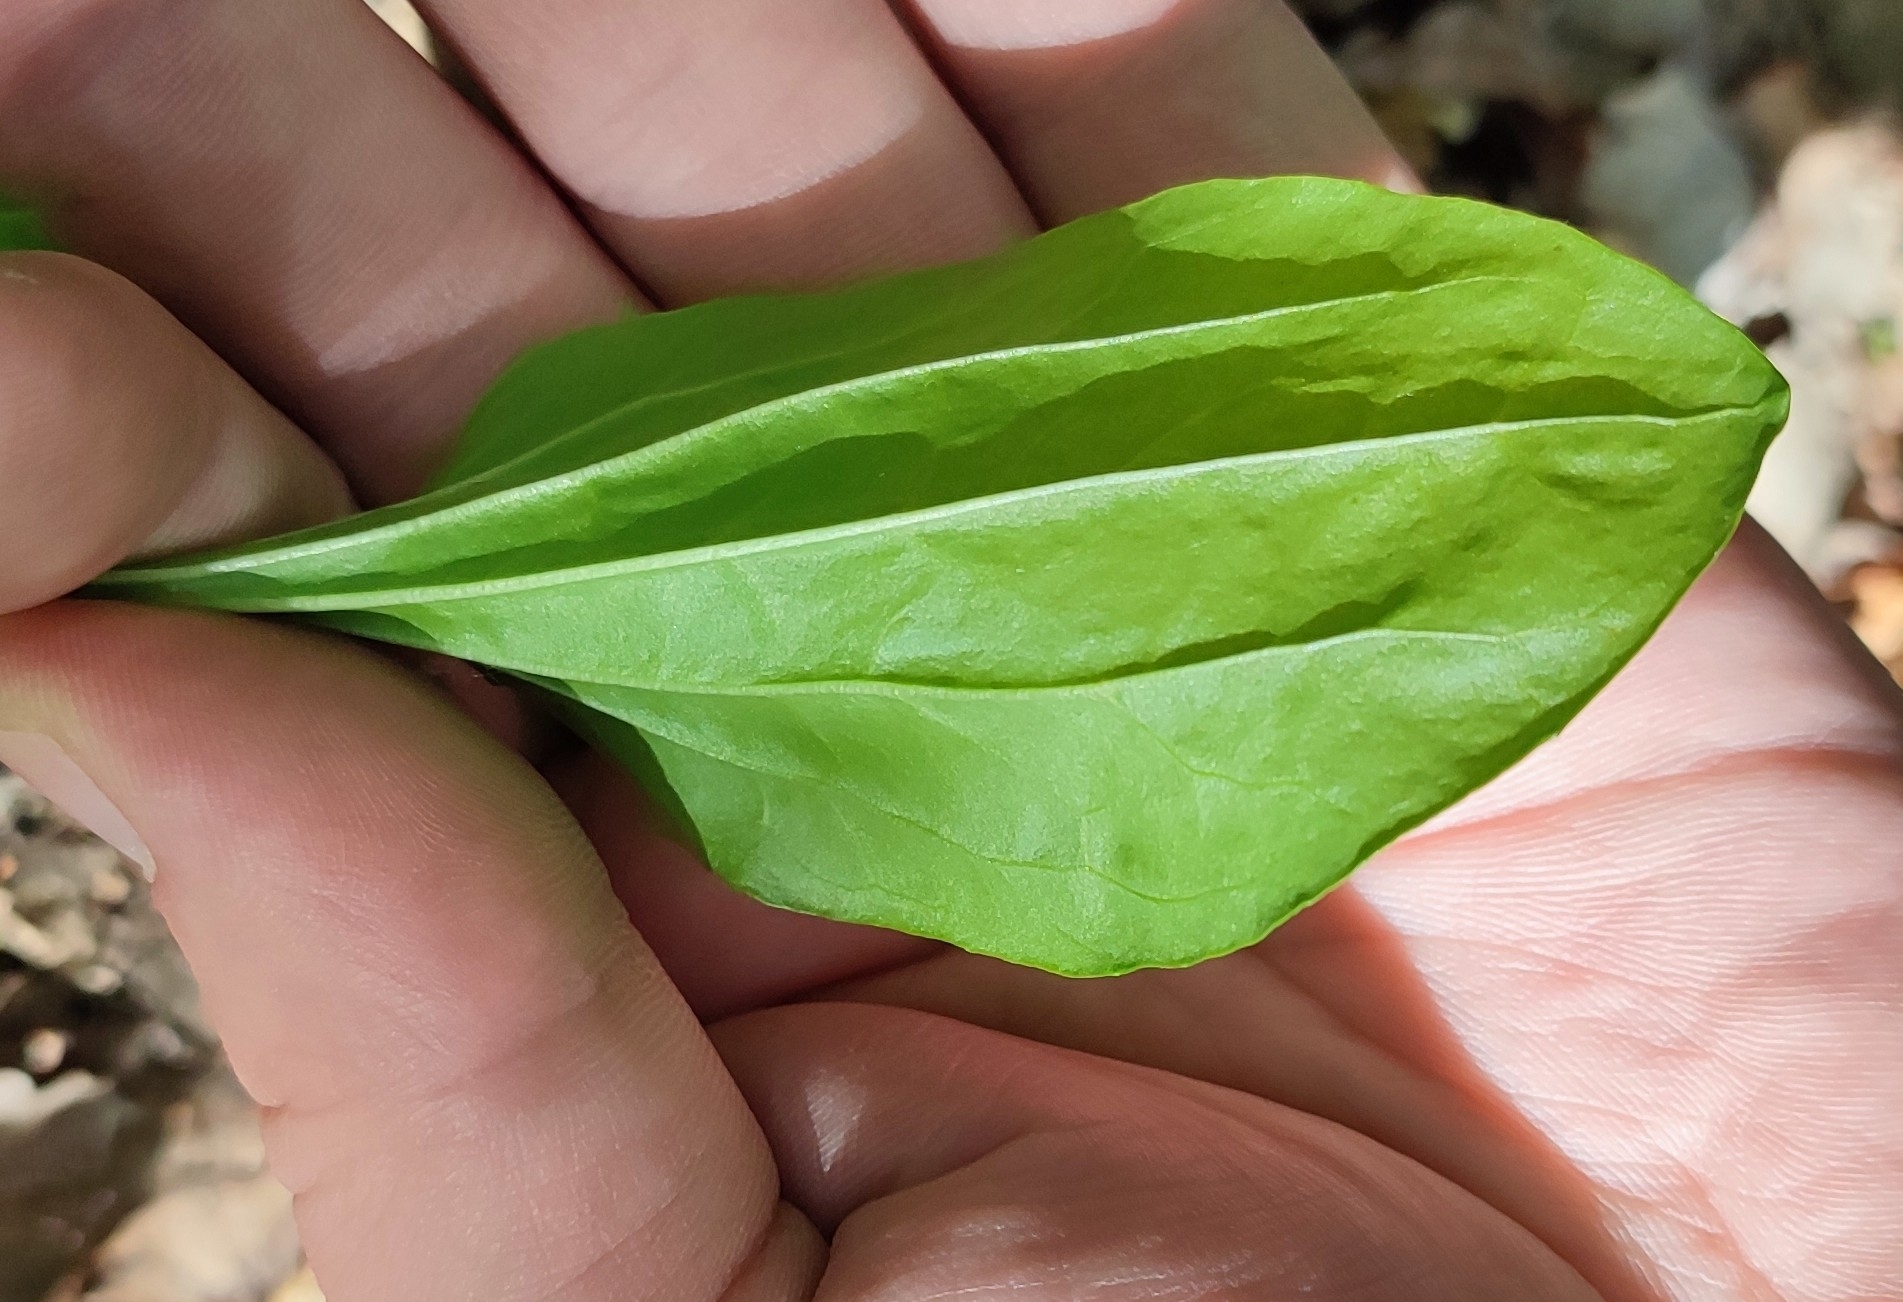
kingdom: Plantae
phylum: Tracheophyta
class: Magnoliopsida
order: Lamiales
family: Plantaginaceae
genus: Plantago
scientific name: Plantago major
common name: Common plantain
